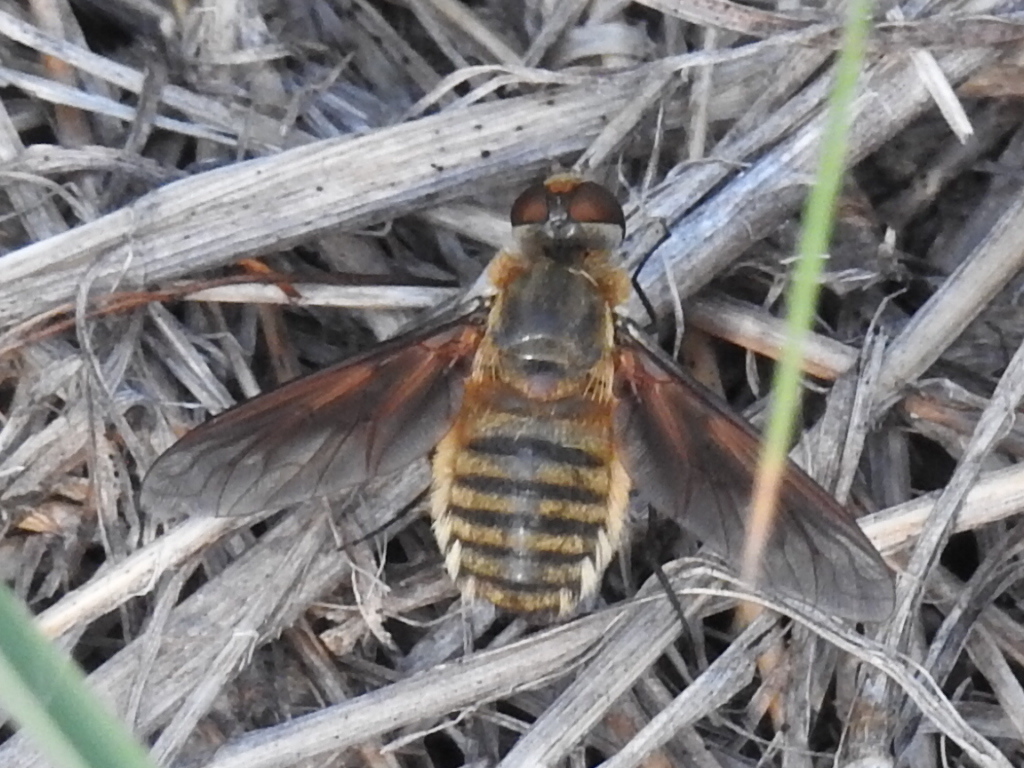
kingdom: Animalia
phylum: Arthropoda
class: Insecta
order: Diptera
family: Bombyliidae
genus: Poecilanthrax
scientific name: Poecilanthrax lucifer
